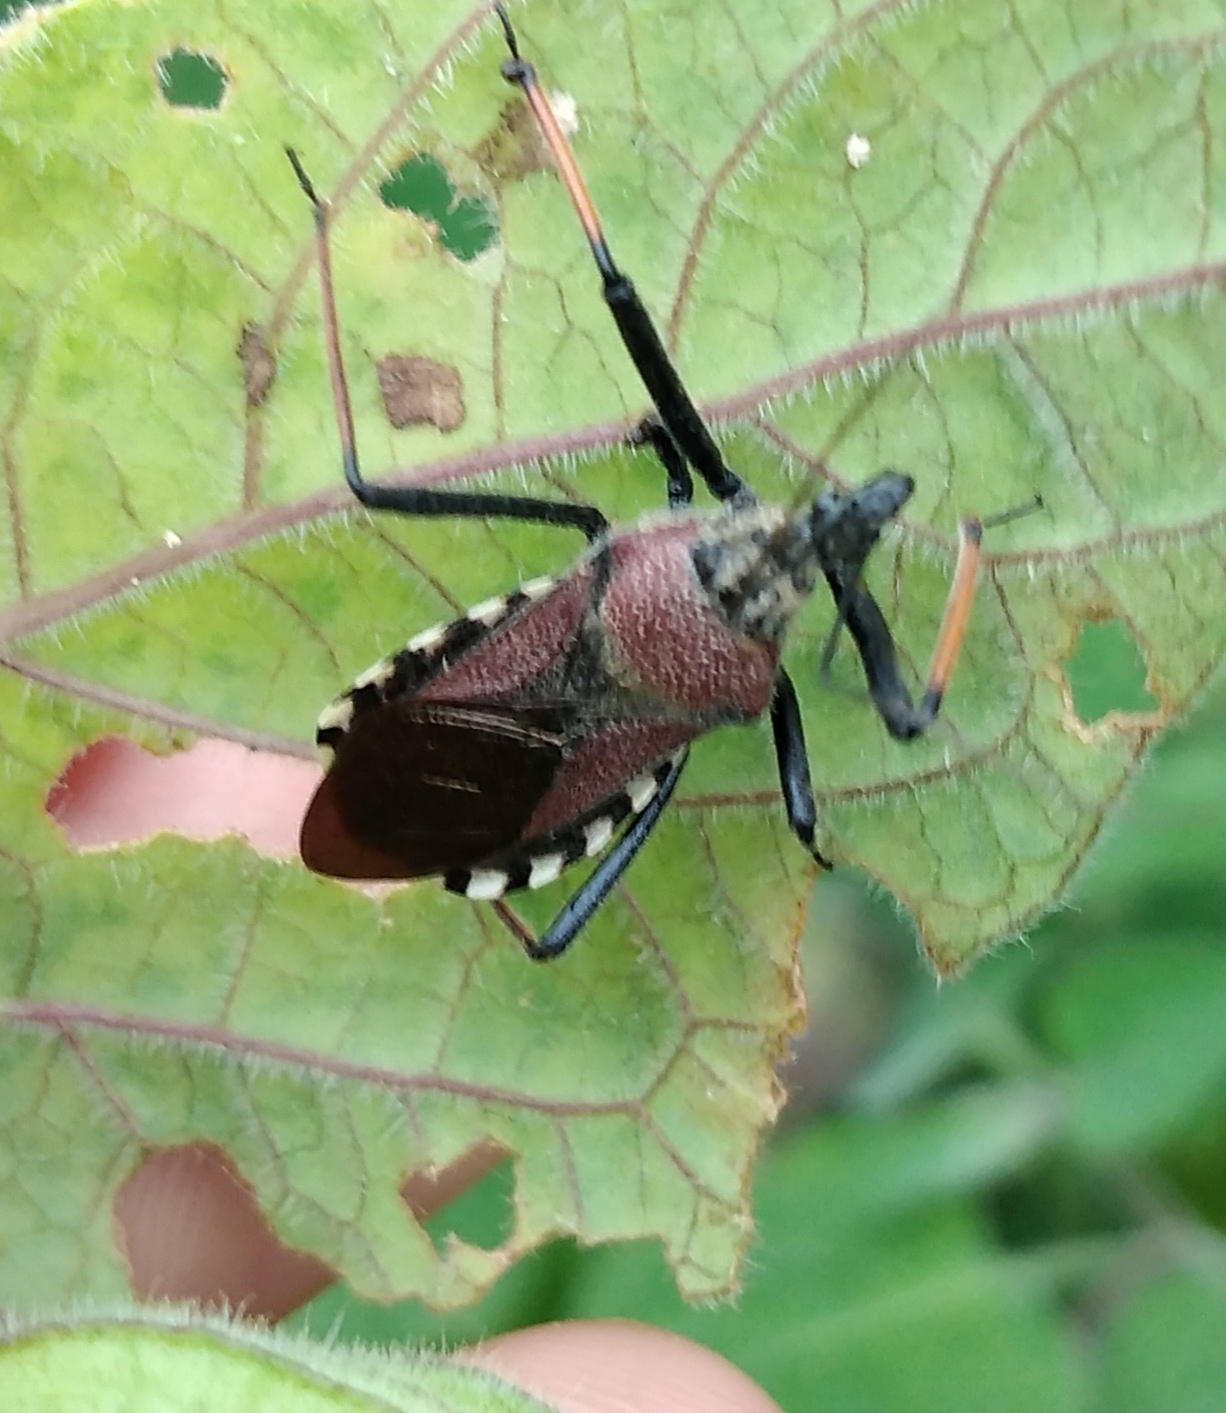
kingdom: Animalia
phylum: Arthropoda
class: Insecta
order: Hemiptera
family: Reduviidae
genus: Rhynocoris
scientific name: Rhynocoris erythrocnemis
